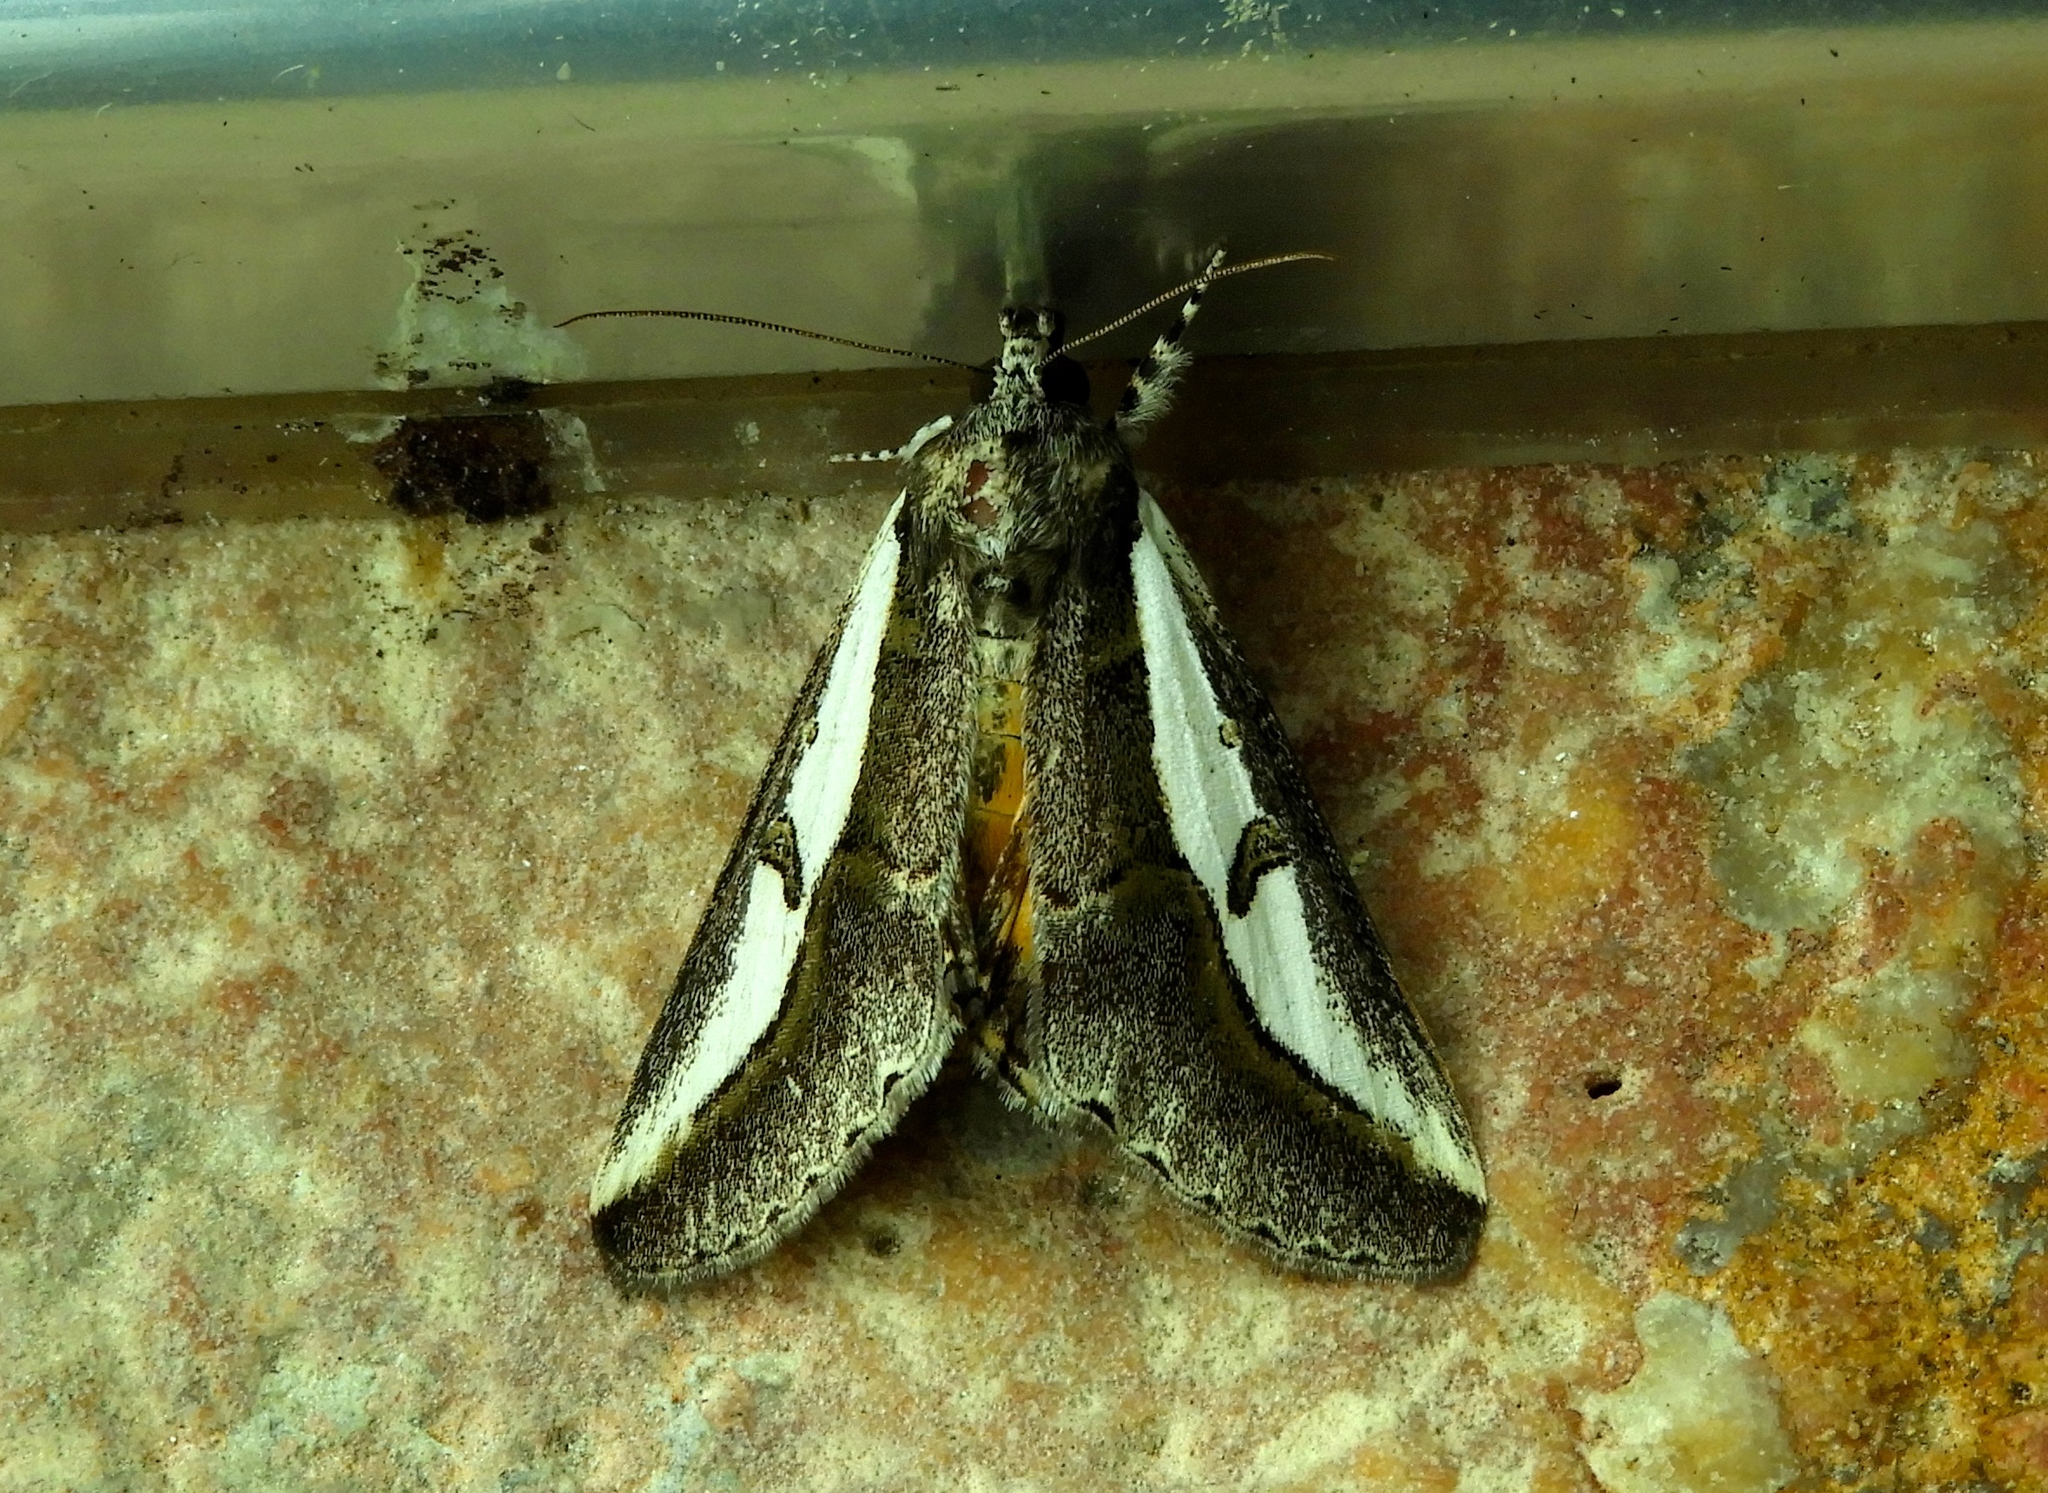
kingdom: Animalia
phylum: Arthropoda
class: Insecta
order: Lepidoptera
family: Noctuidae
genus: Euscirrhopterus
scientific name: Euscirrhopterus gloveri
